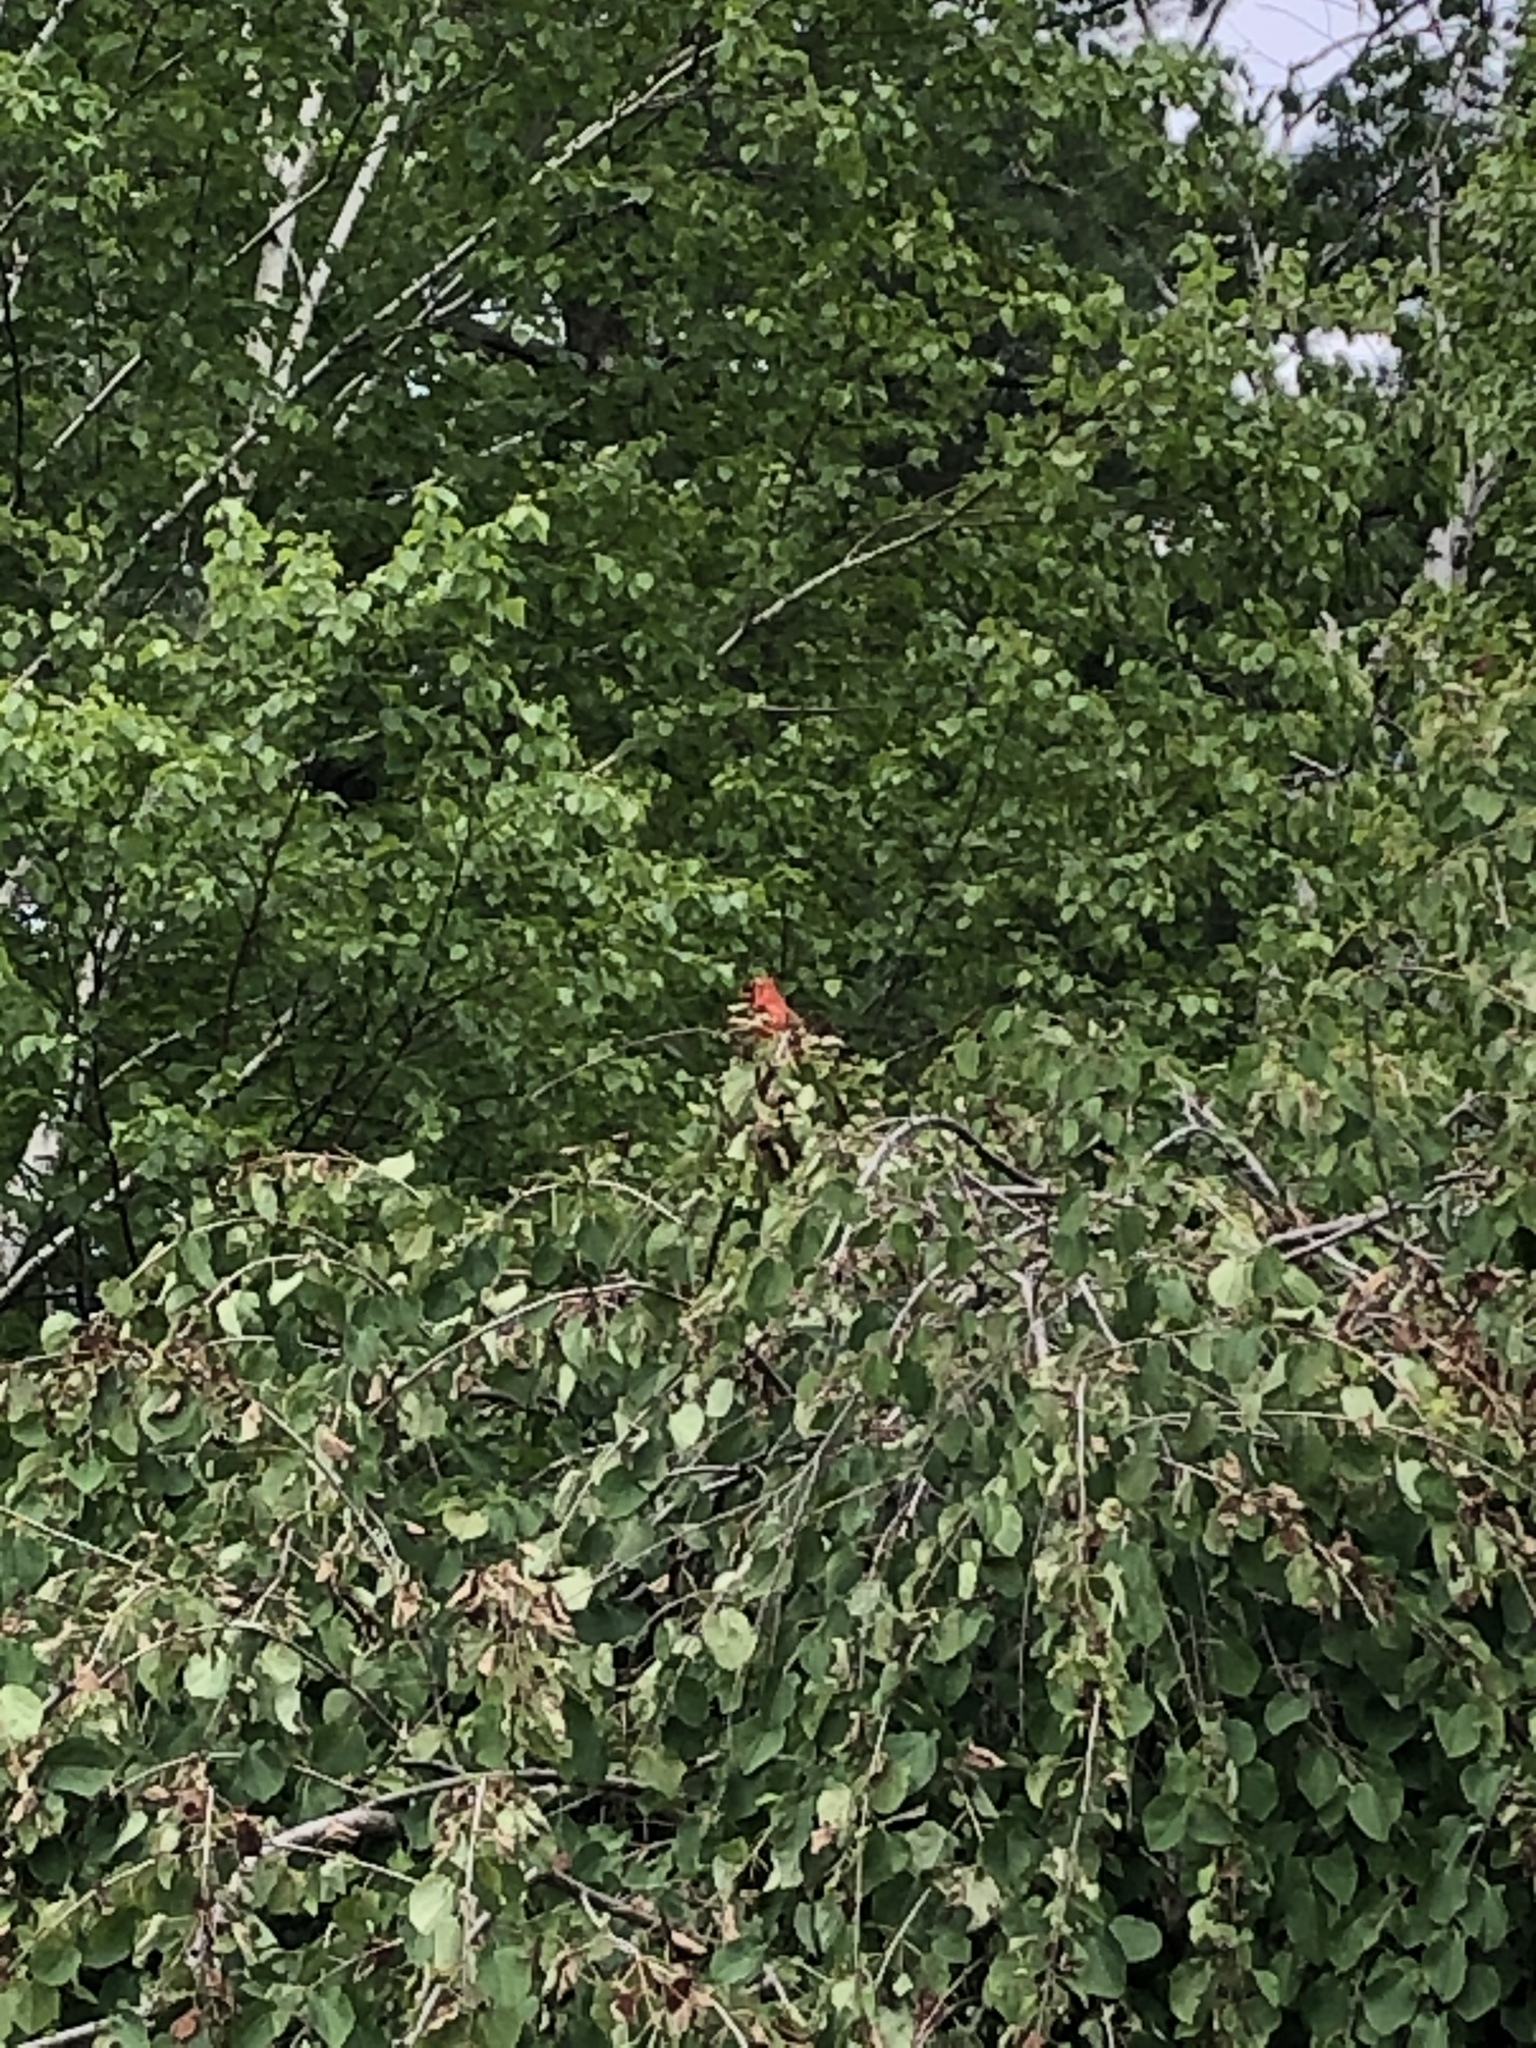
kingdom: Animalia
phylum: Chordata
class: Aves
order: Passeriformes
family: Cardinalidae
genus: Cardinalis
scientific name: Cardinalis cardinalis
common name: Northern cardinal
